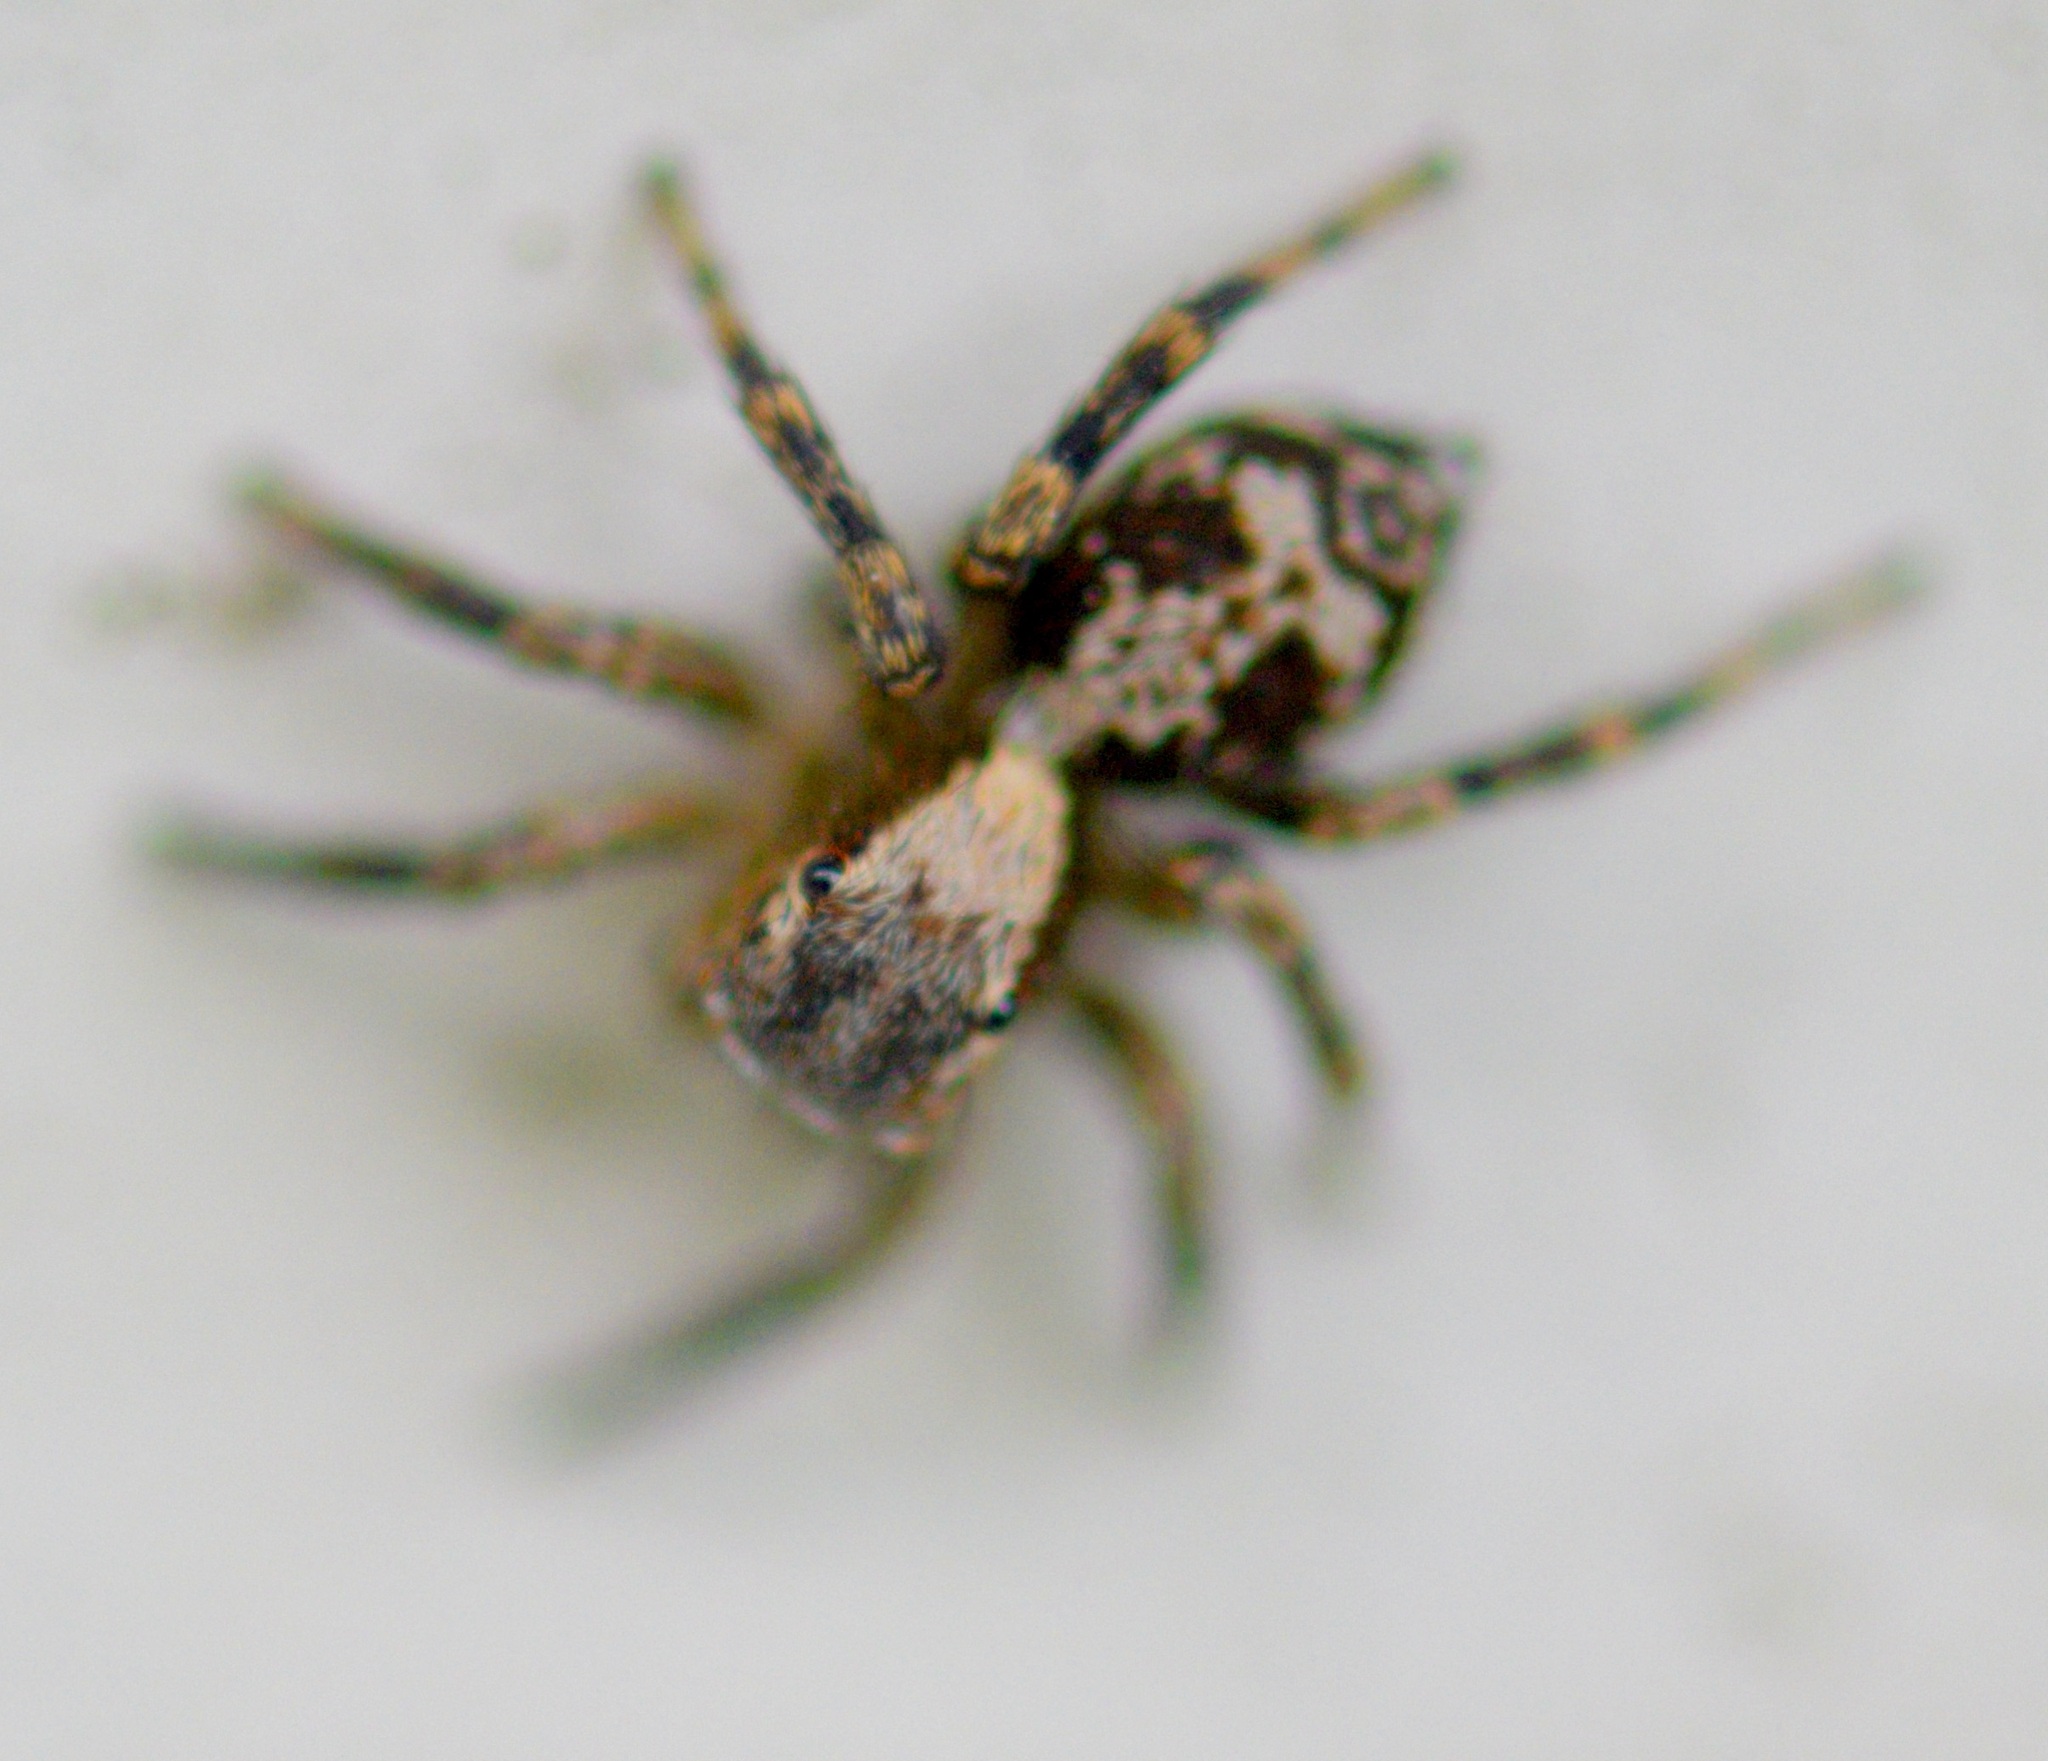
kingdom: Animalia
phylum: Arthropoda
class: Arachnida
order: Araneae
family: Salticidae
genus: Naphrys
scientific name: Naphrys pulex
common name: Flea jumping spider
